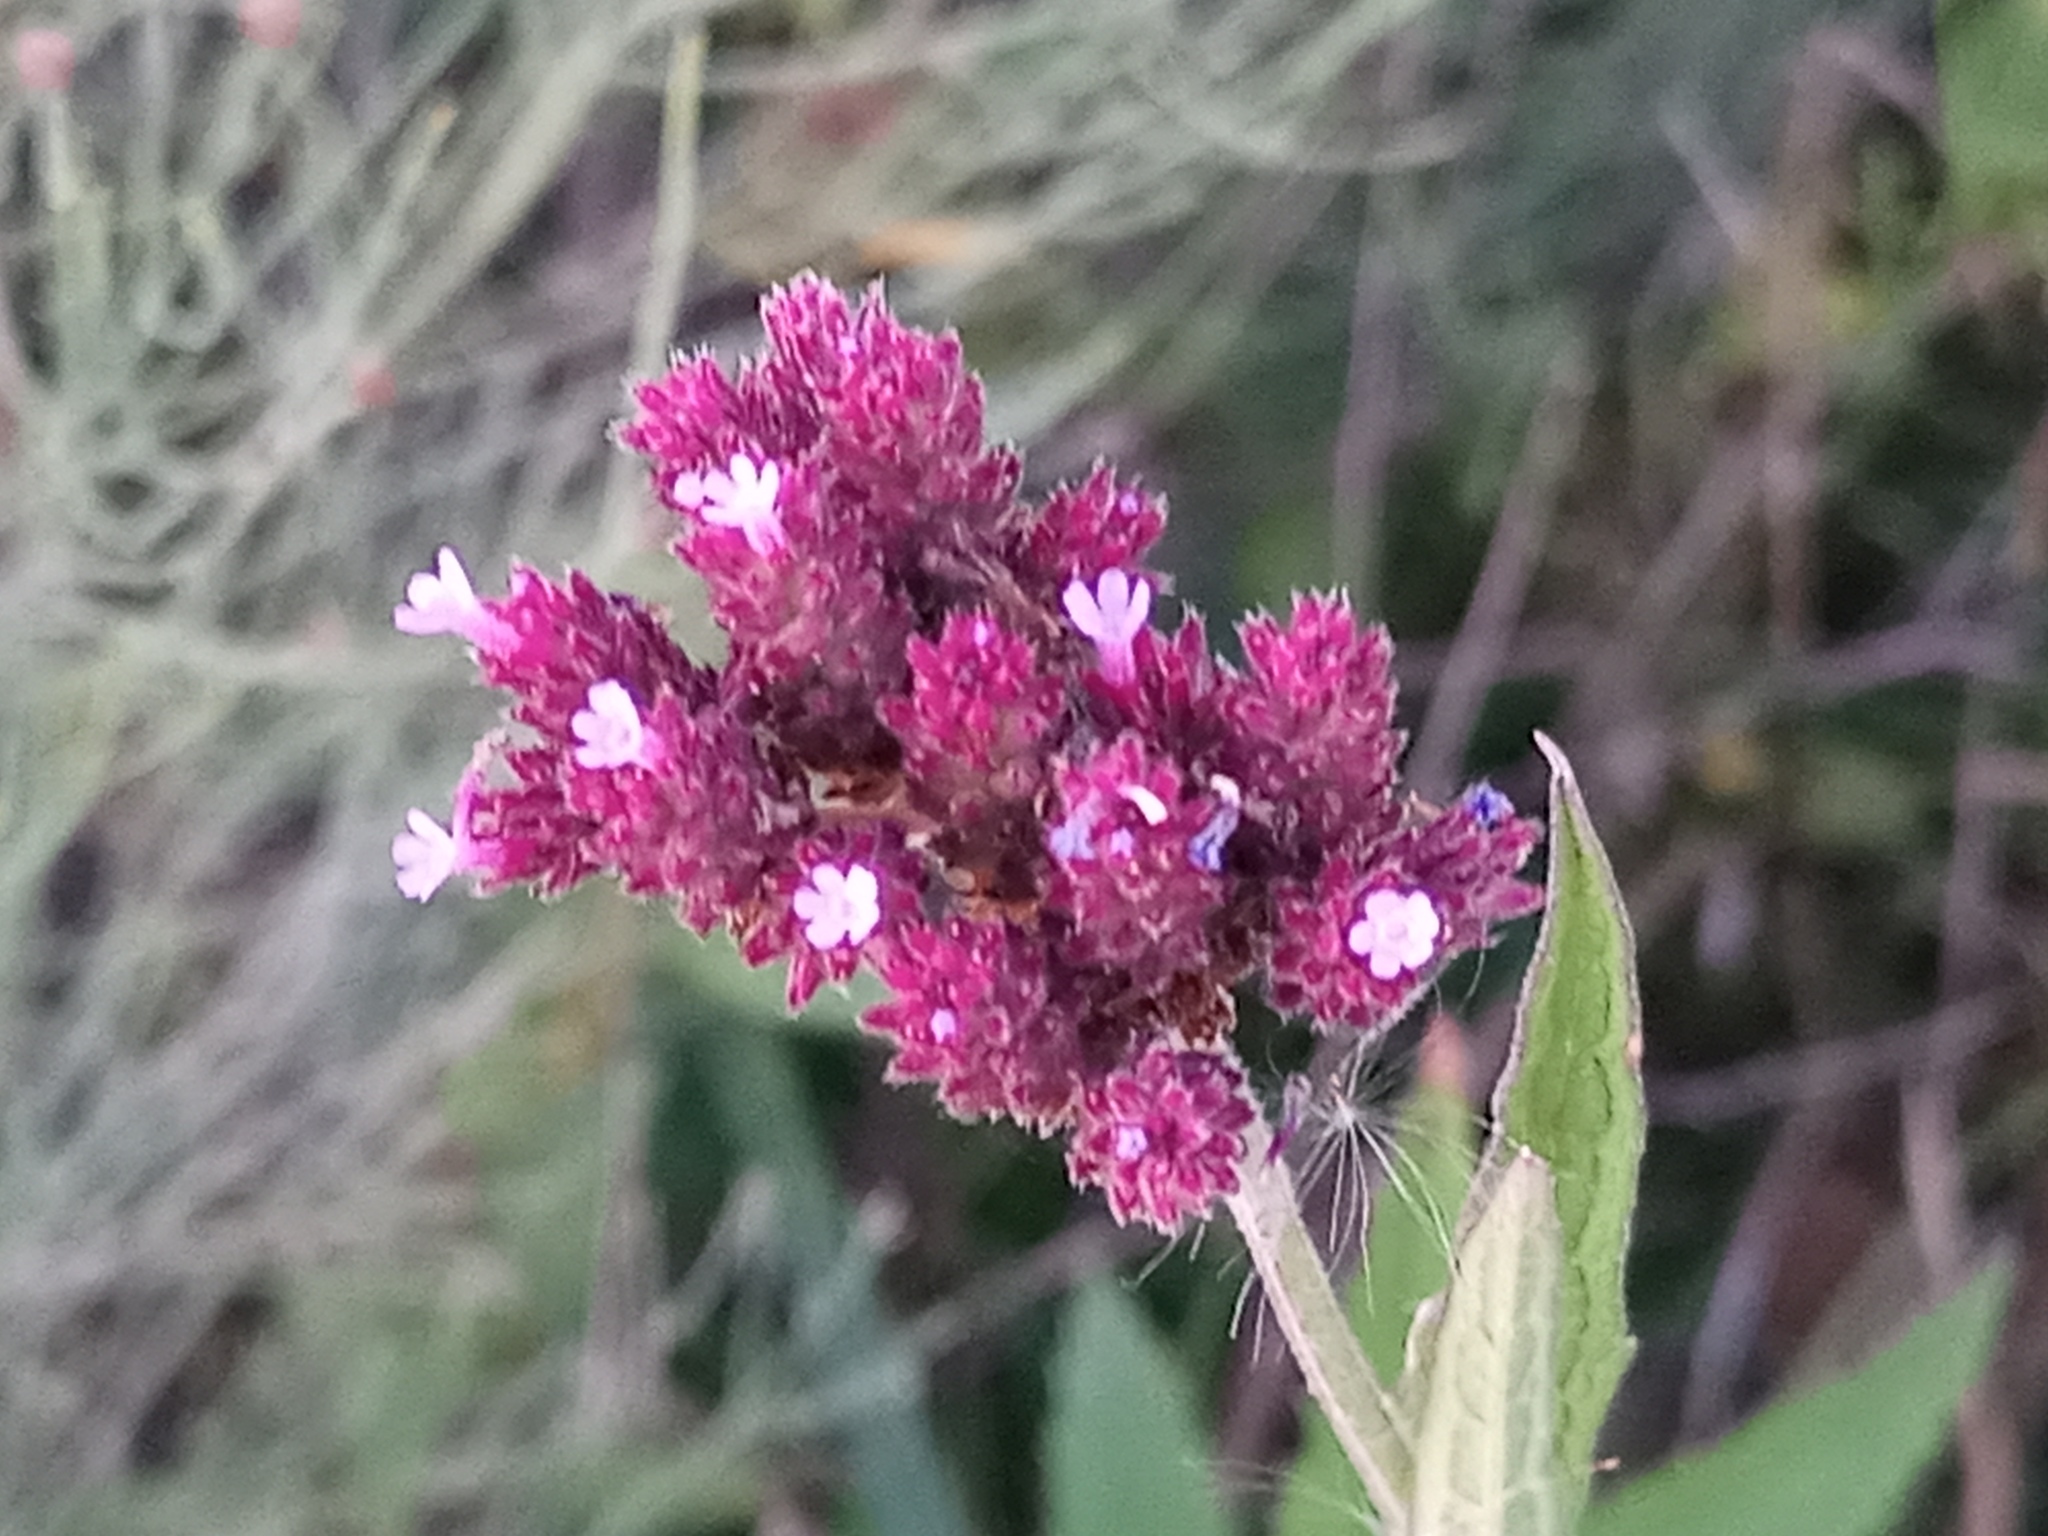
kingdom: Plantae
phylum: Tracheophyta
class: Magnoliopsida
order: Lamiales
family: Verbenaceae
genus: Verbena
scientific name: Verbena bonariensis
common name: Purpletop vervain
